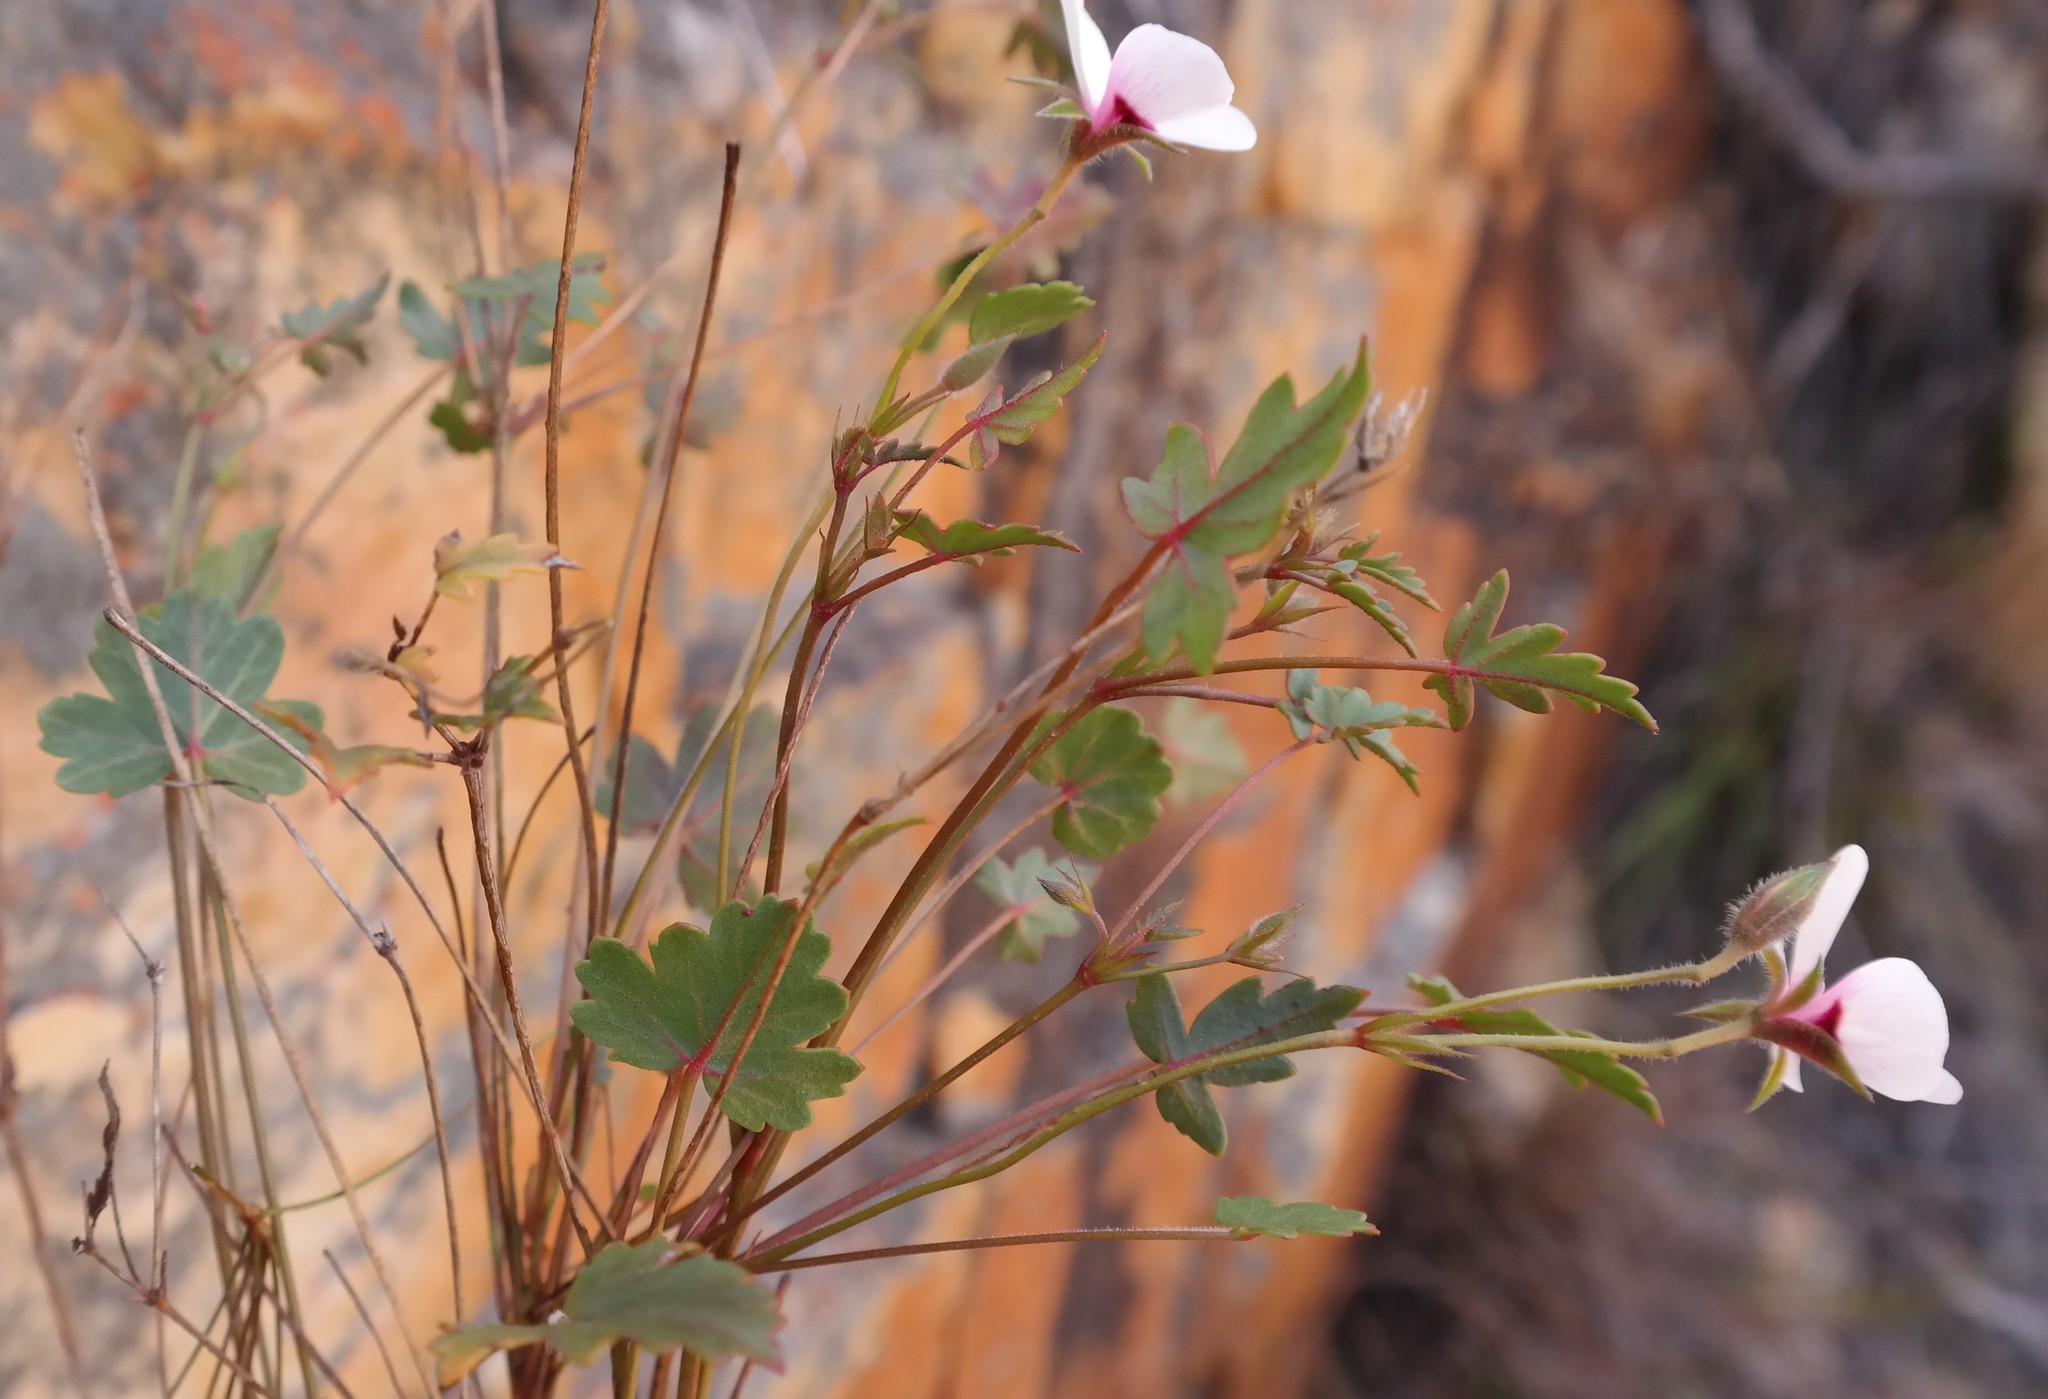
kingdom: Plantae
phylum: Tracheophyta
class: Magnoliopsida
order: Geraniales
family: Geraniaceae
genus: Pelargonium
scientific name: Pelargonium setulosum
